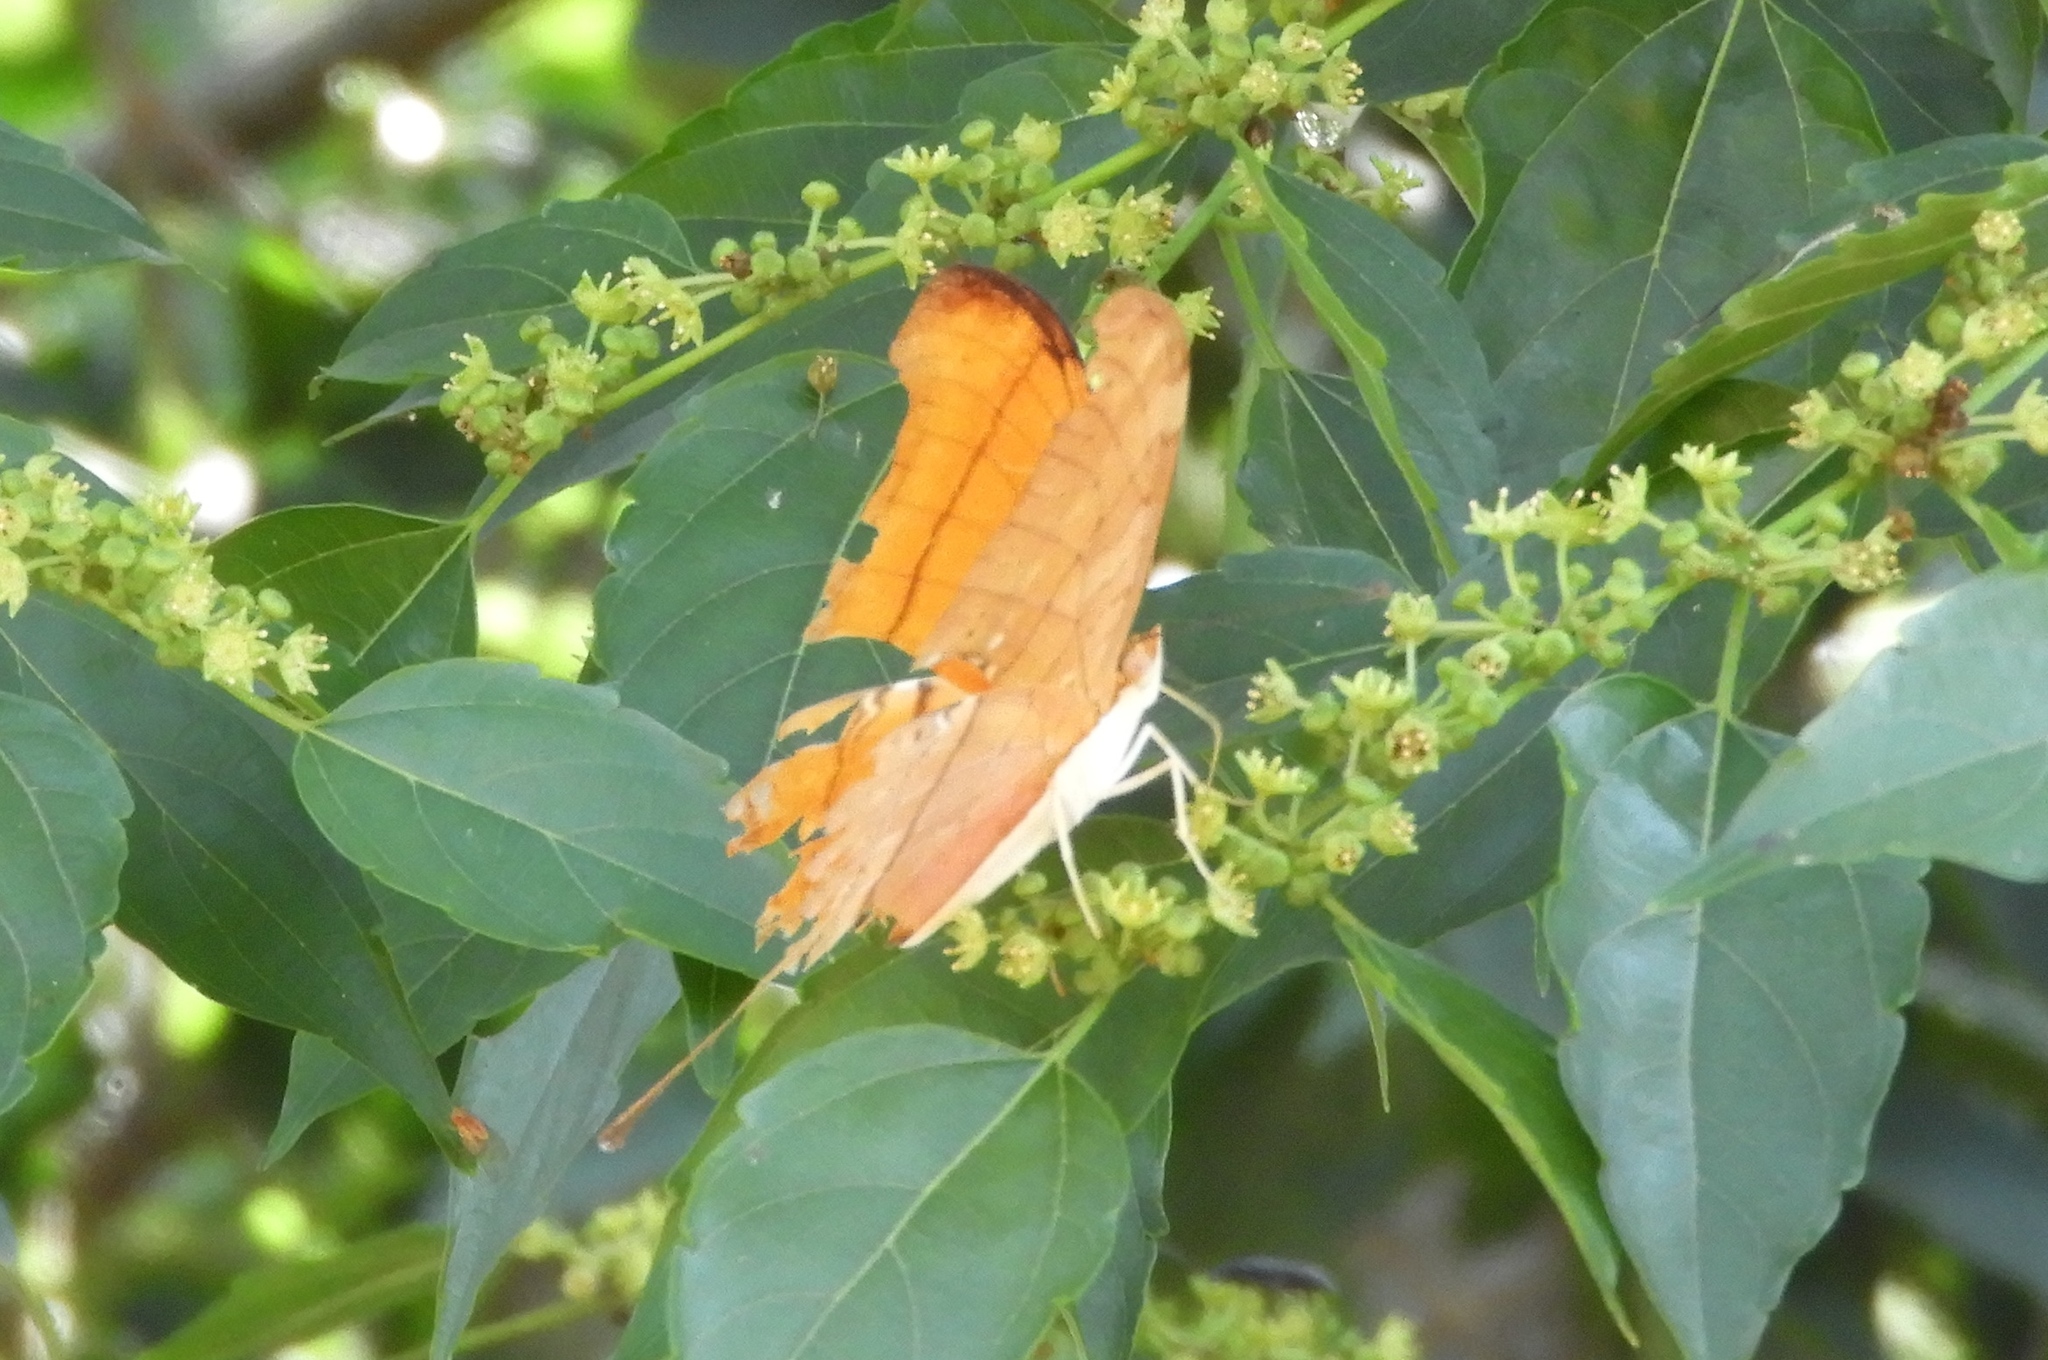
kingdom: Animalia
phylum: Arthropoda
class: Insecta
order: Lepidoptera
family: Nymphalidae
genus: Marpesia
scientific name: Marpesia petreus
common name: Red dagger wing
